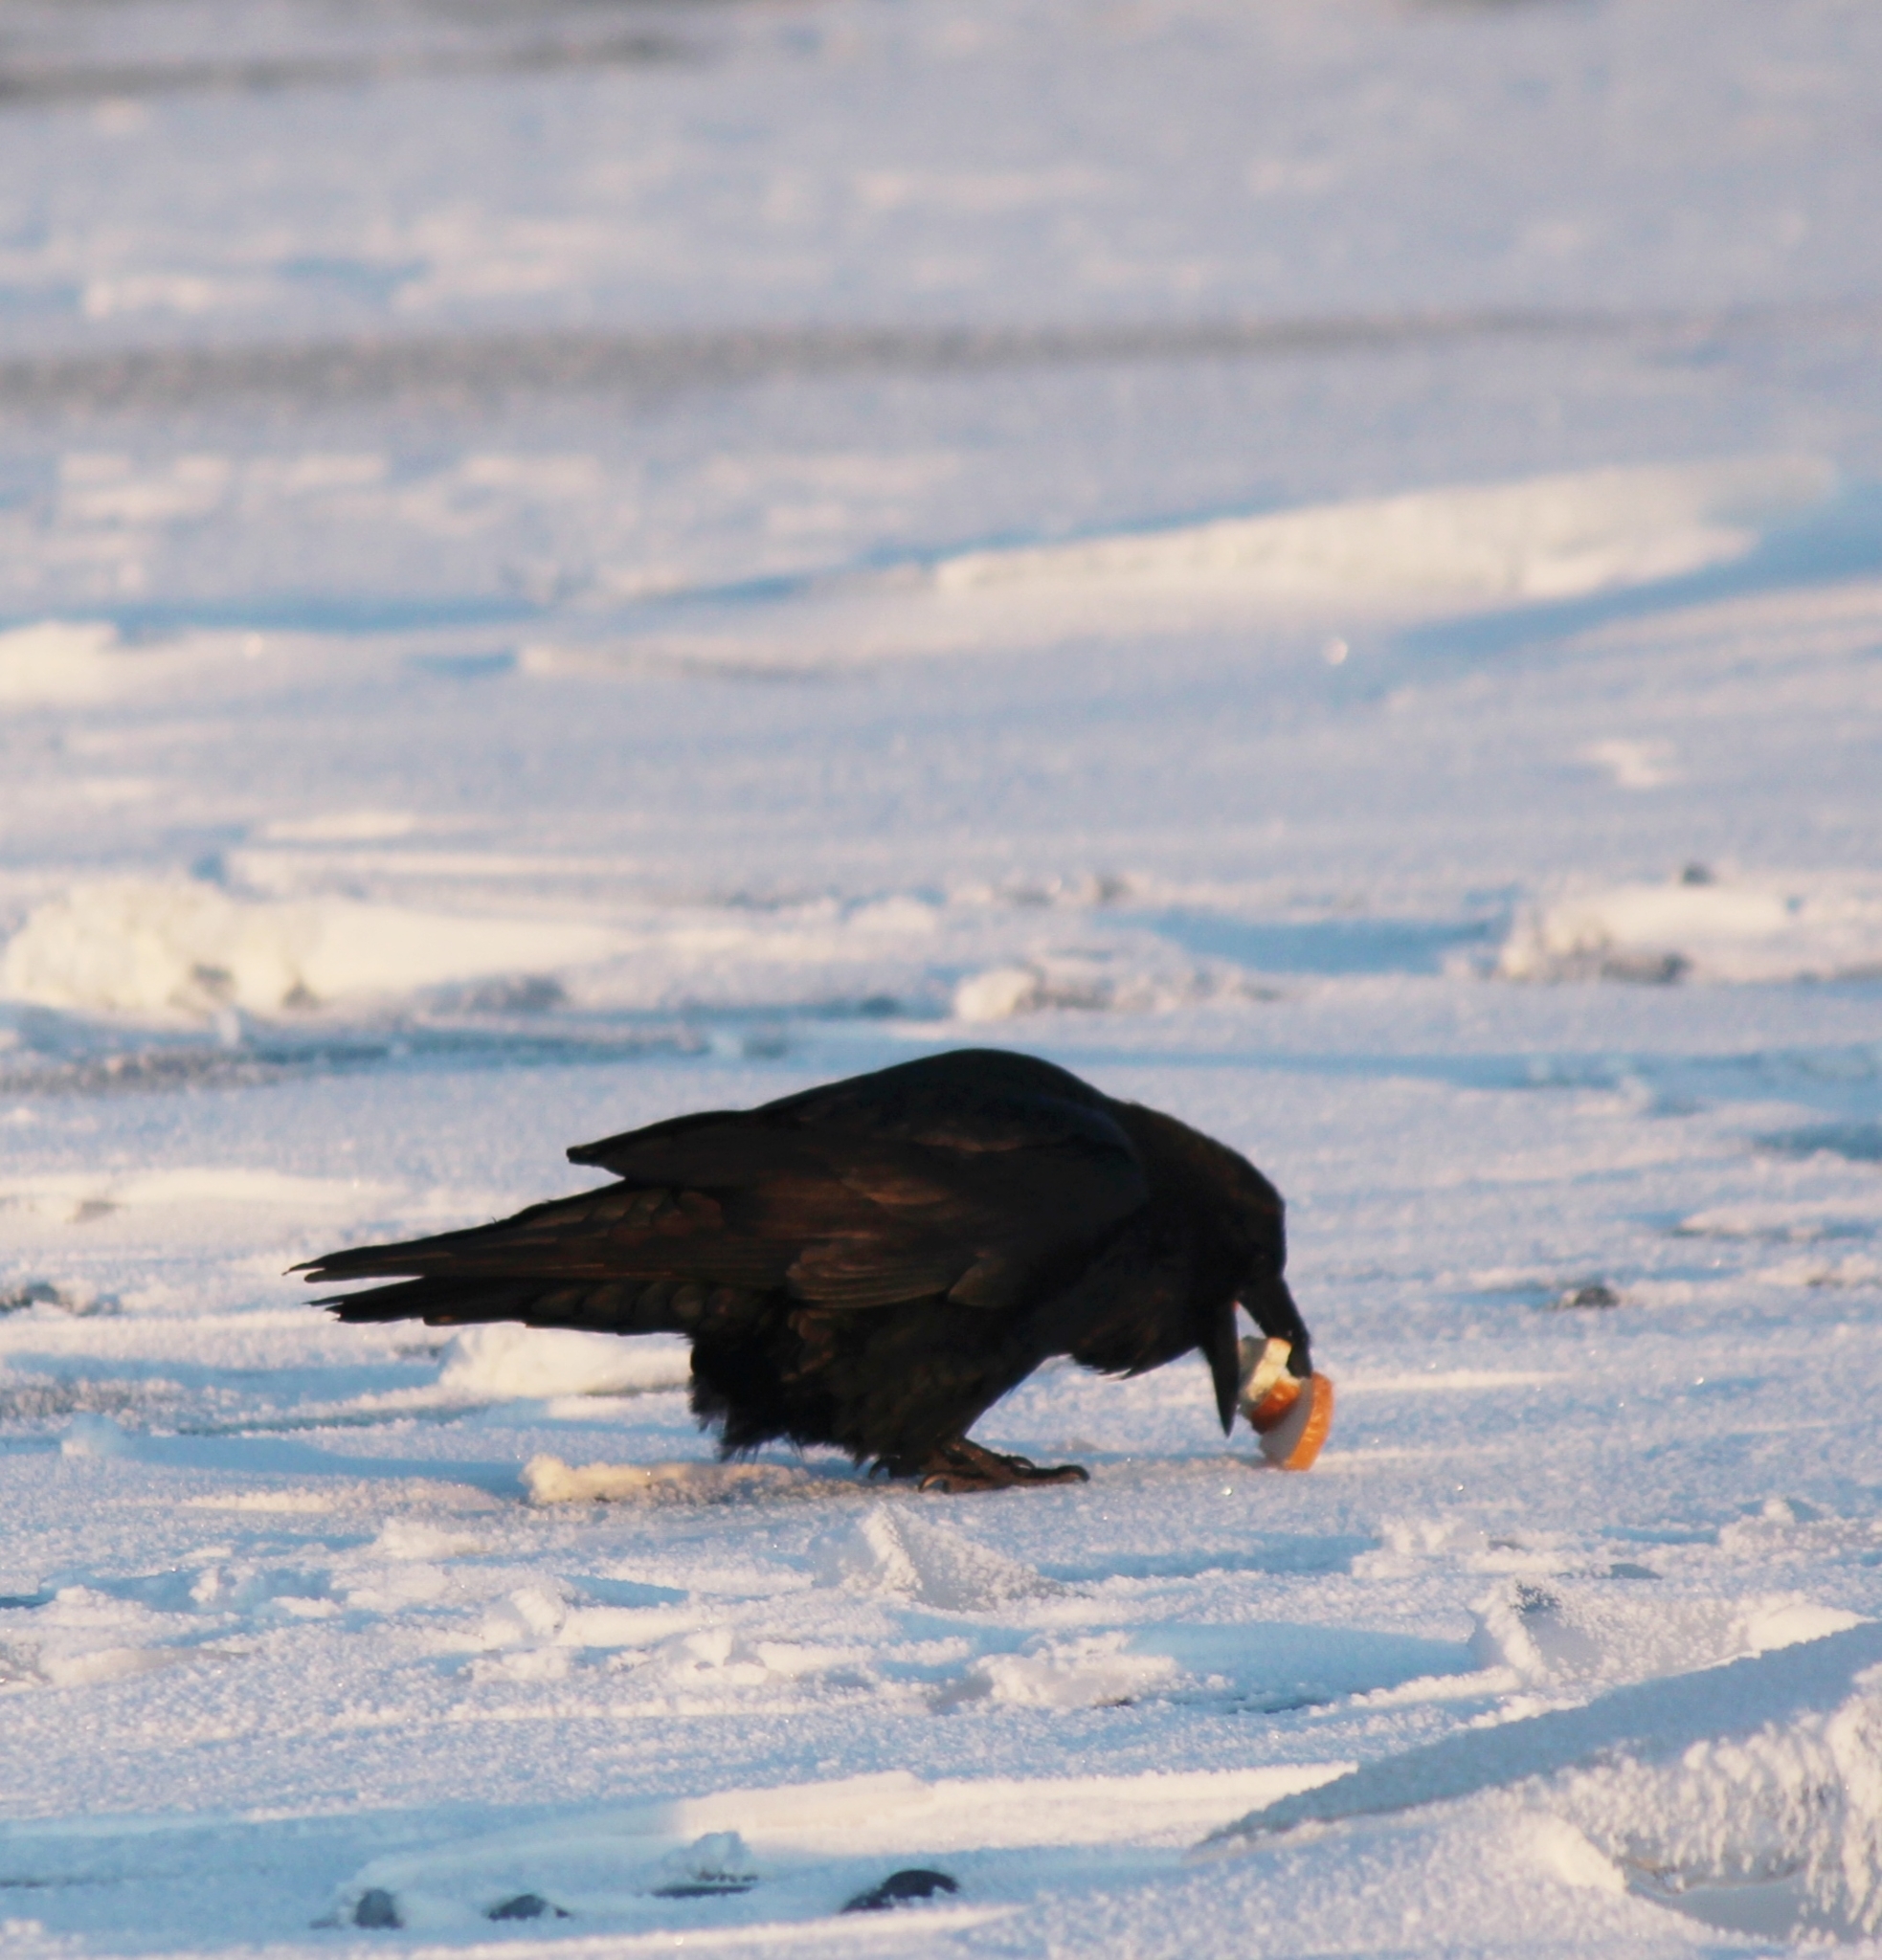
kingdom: Animalia
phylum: Chordata
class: Aves
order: Passeriformes
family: Corvidae
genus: Corvus
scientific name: Corvus corax
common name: Common raven
